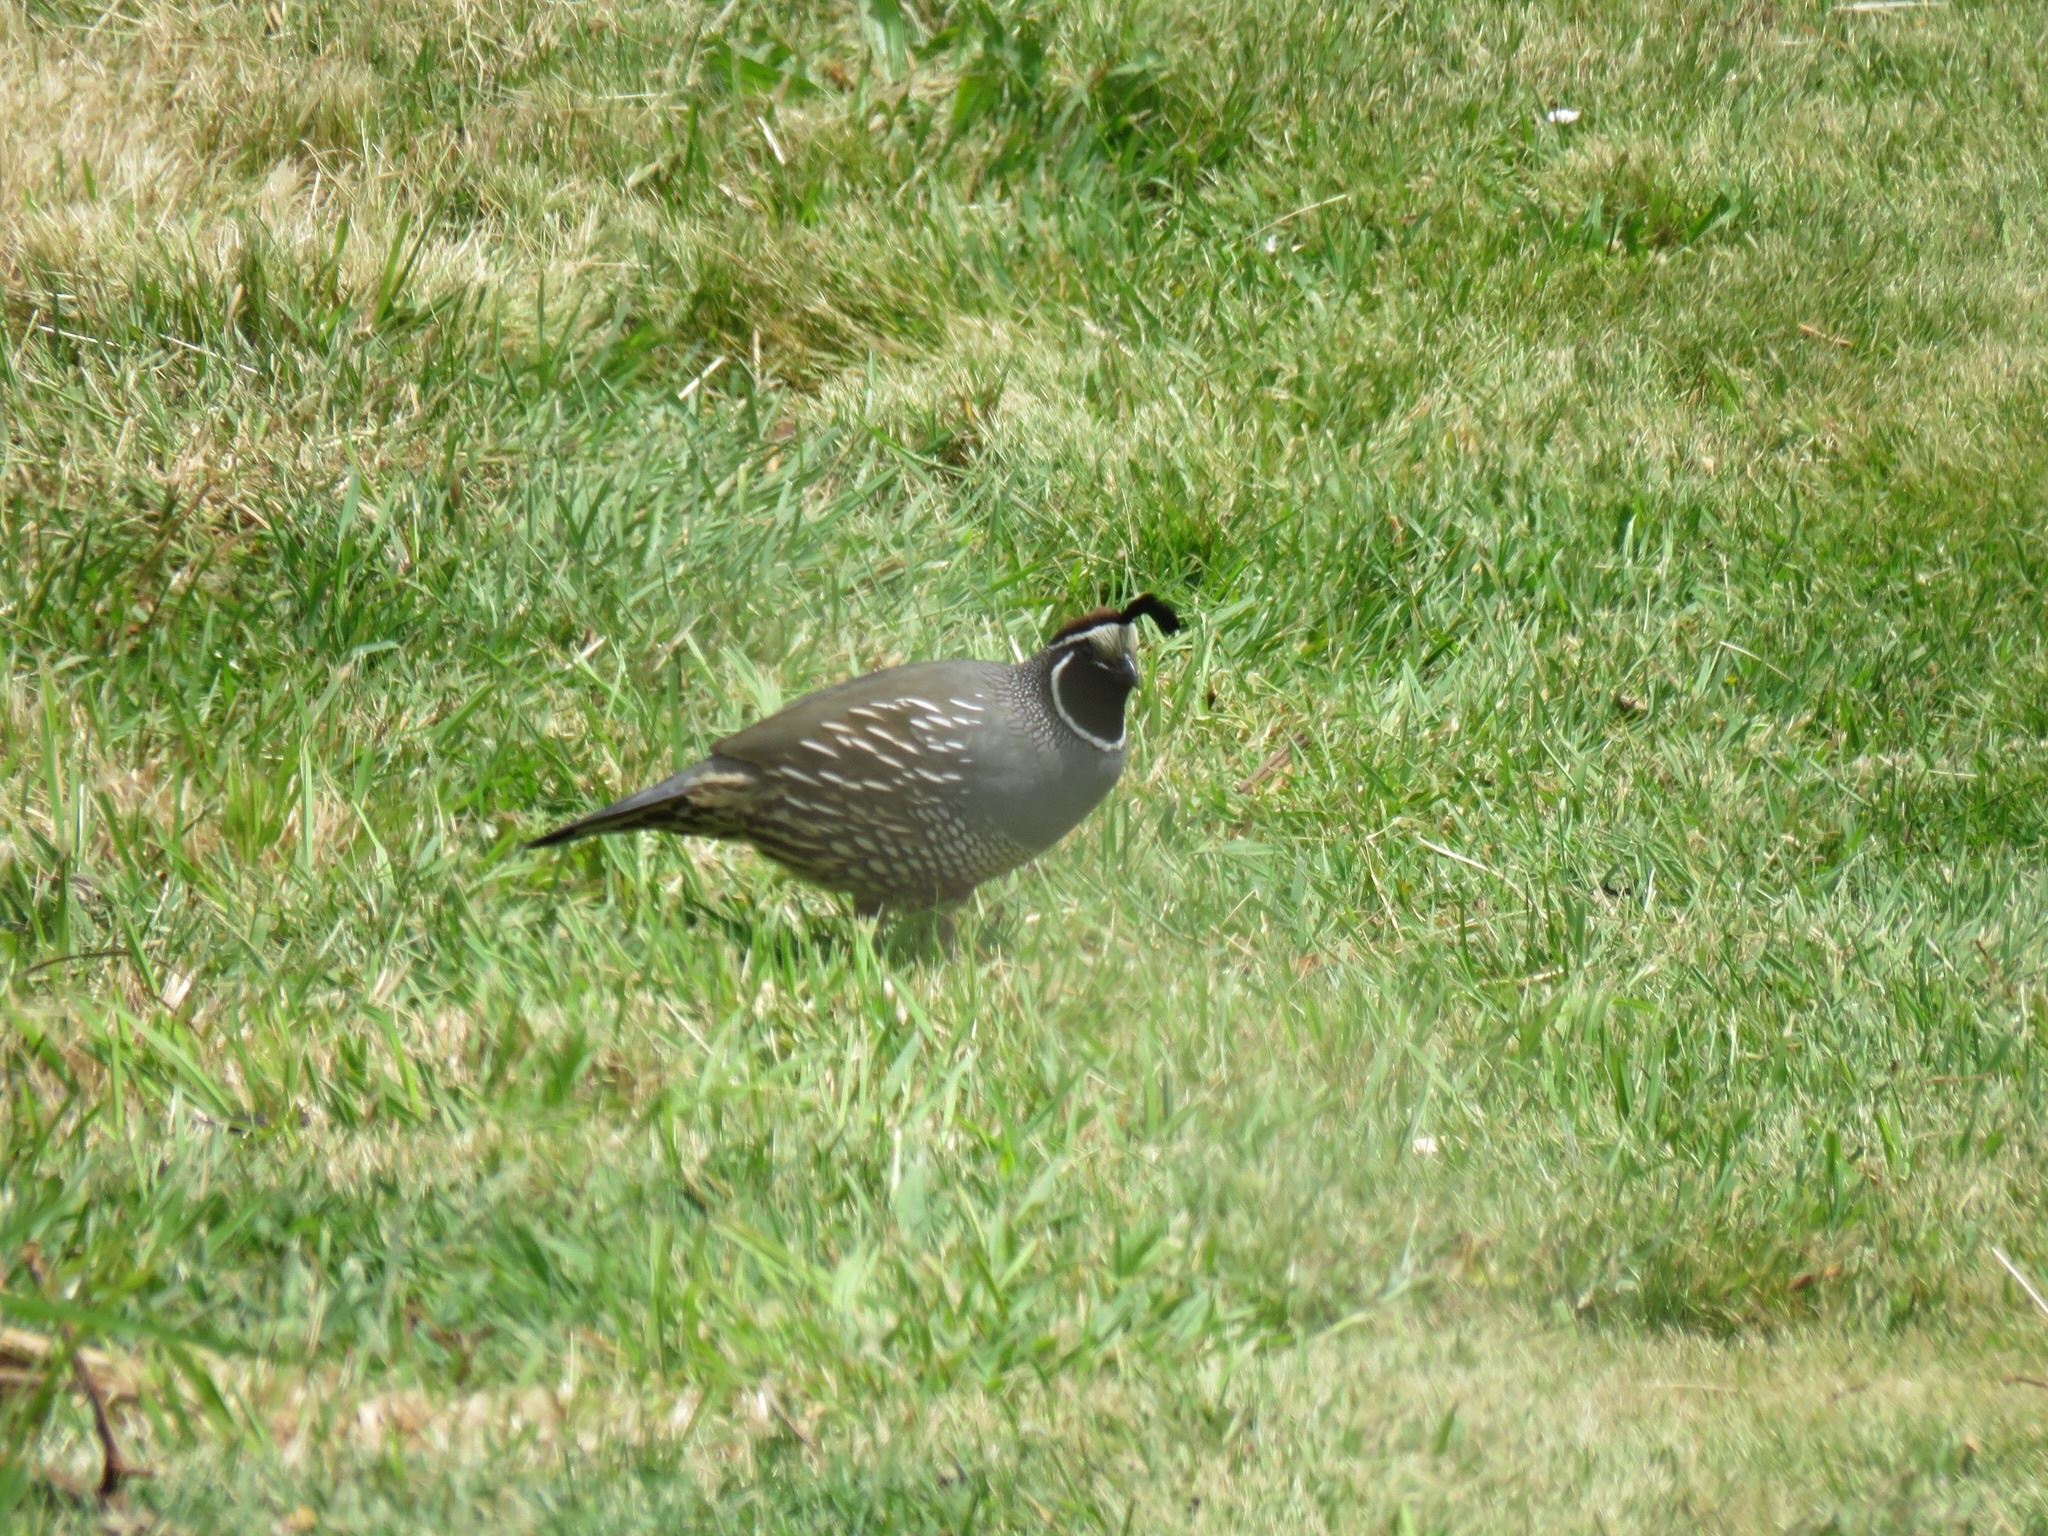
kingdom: Animalia
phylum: Chordata
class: Aves
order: Galliformes
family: Odontophoridae
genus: Callipepla
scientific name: Callipepla californica
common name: California quail
